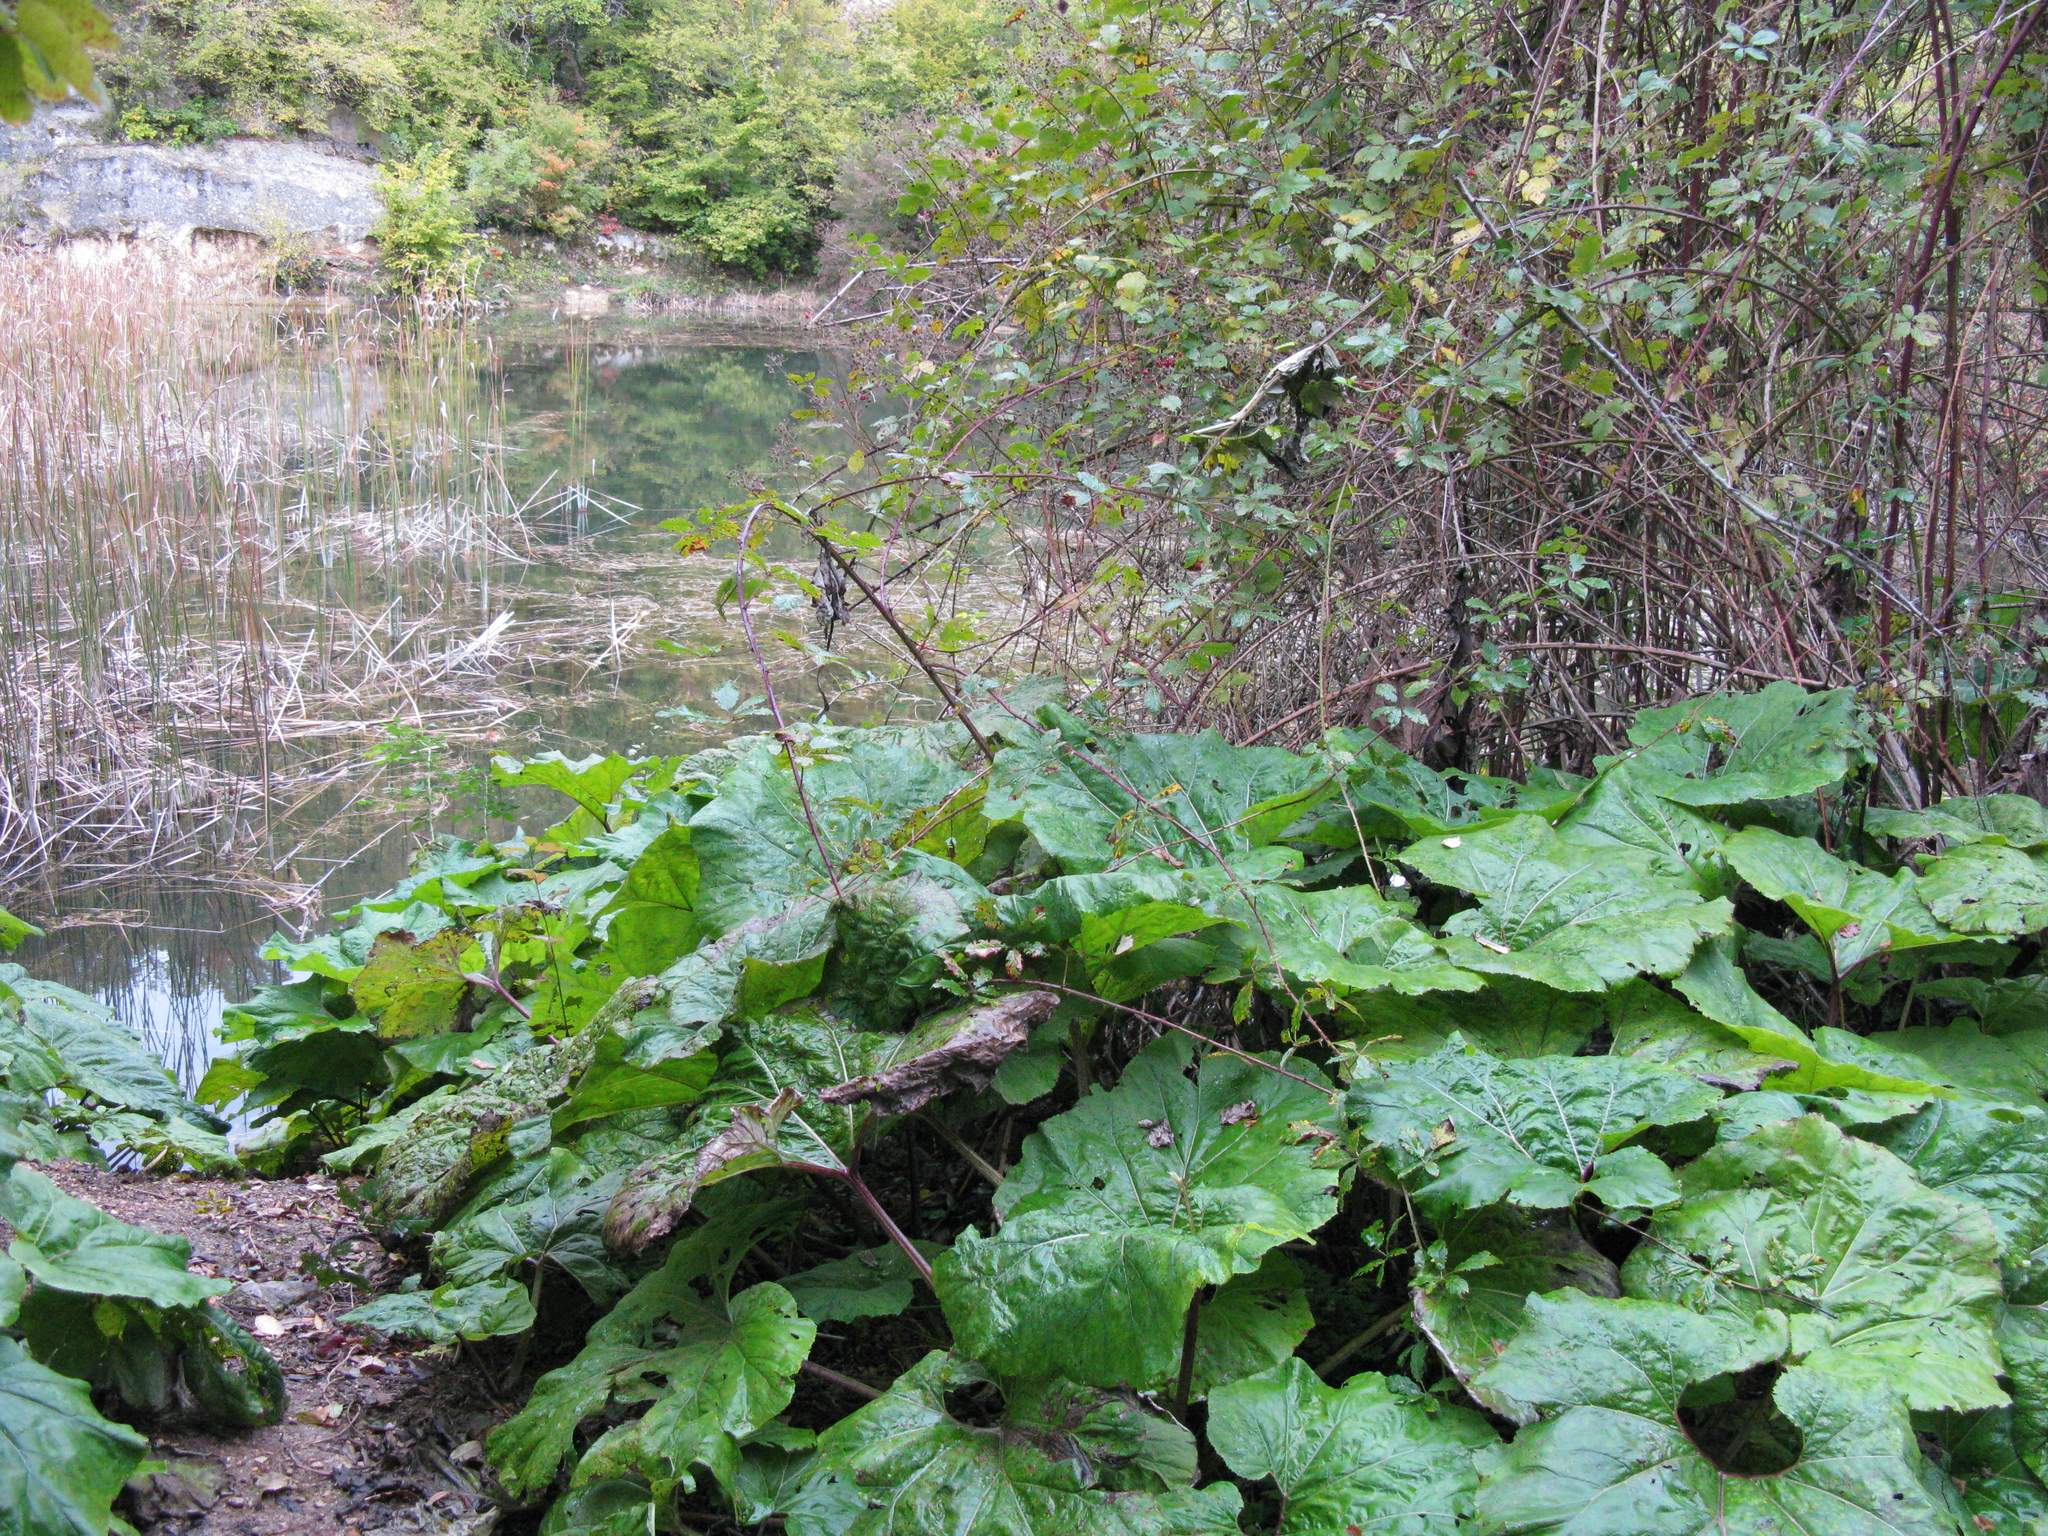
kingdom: Plantae
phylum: Tracheophyta
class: Magnoliopsida
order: Asterales
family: Asteraceae
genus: Petasites
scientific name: Petasites hybridus
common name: Butterbur
